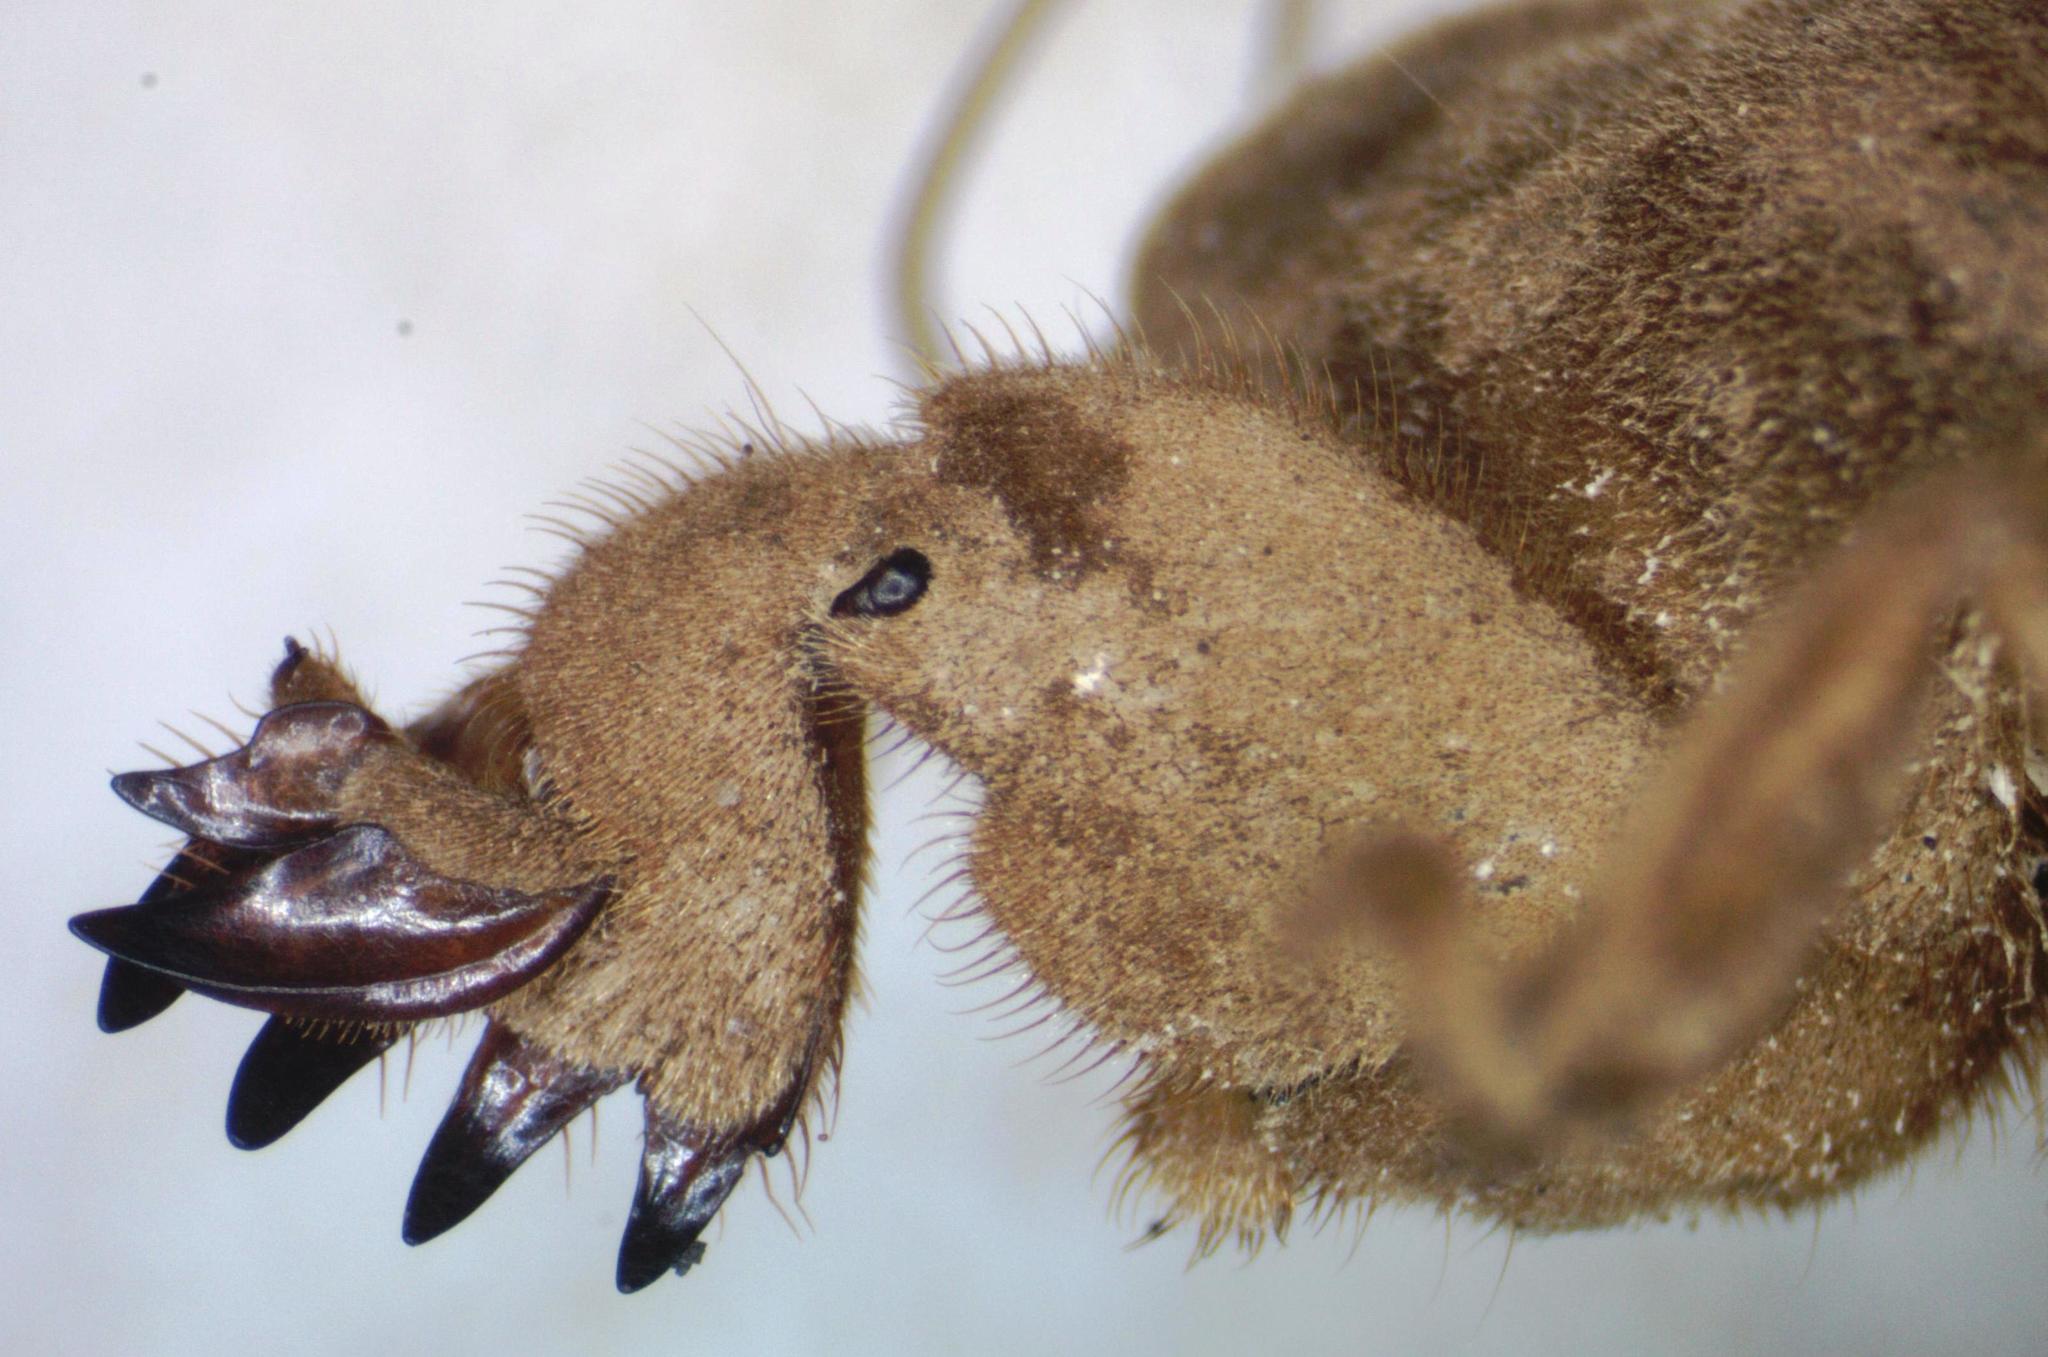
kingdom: Animalia
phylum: Arthropoda
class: Insecta
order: Orthoptera
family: Gryllotalpidae
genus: Neocurtilla
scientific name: Neocurtilla hexadactyla
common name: Northern mole cricket
